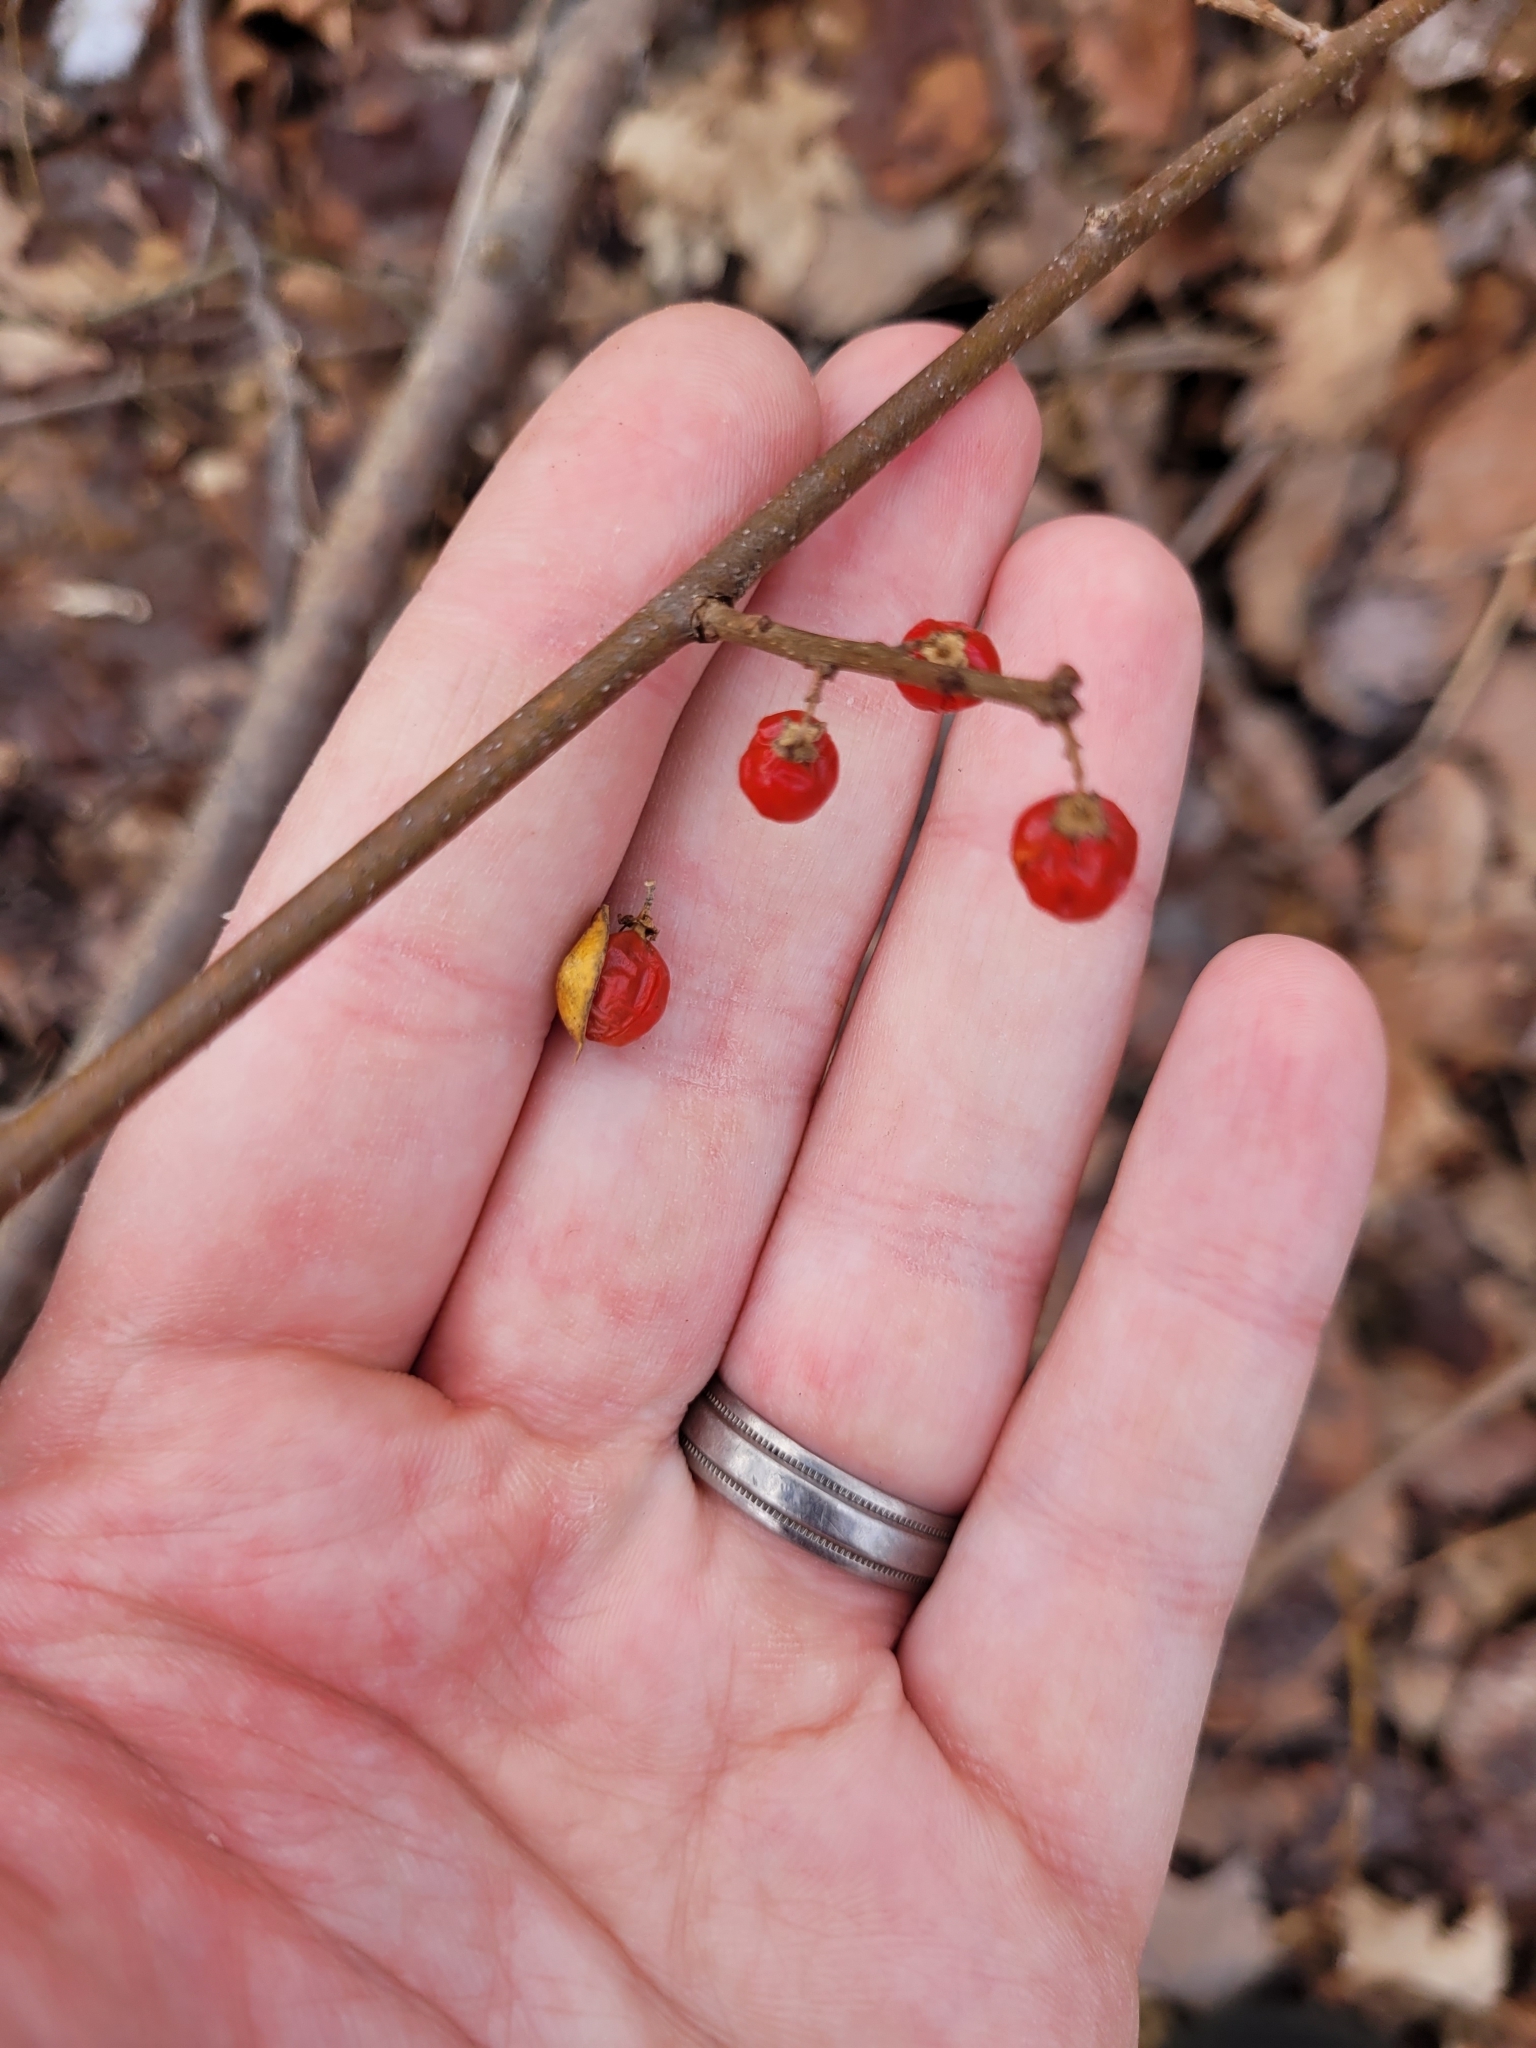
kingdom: Plantae
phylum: Tracheophyta
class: Magnoliopsida
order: Celastrales
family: Celastraceae
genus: Celastrus
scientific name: Celastrus orbiculatus
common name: Oriental bittersweet
